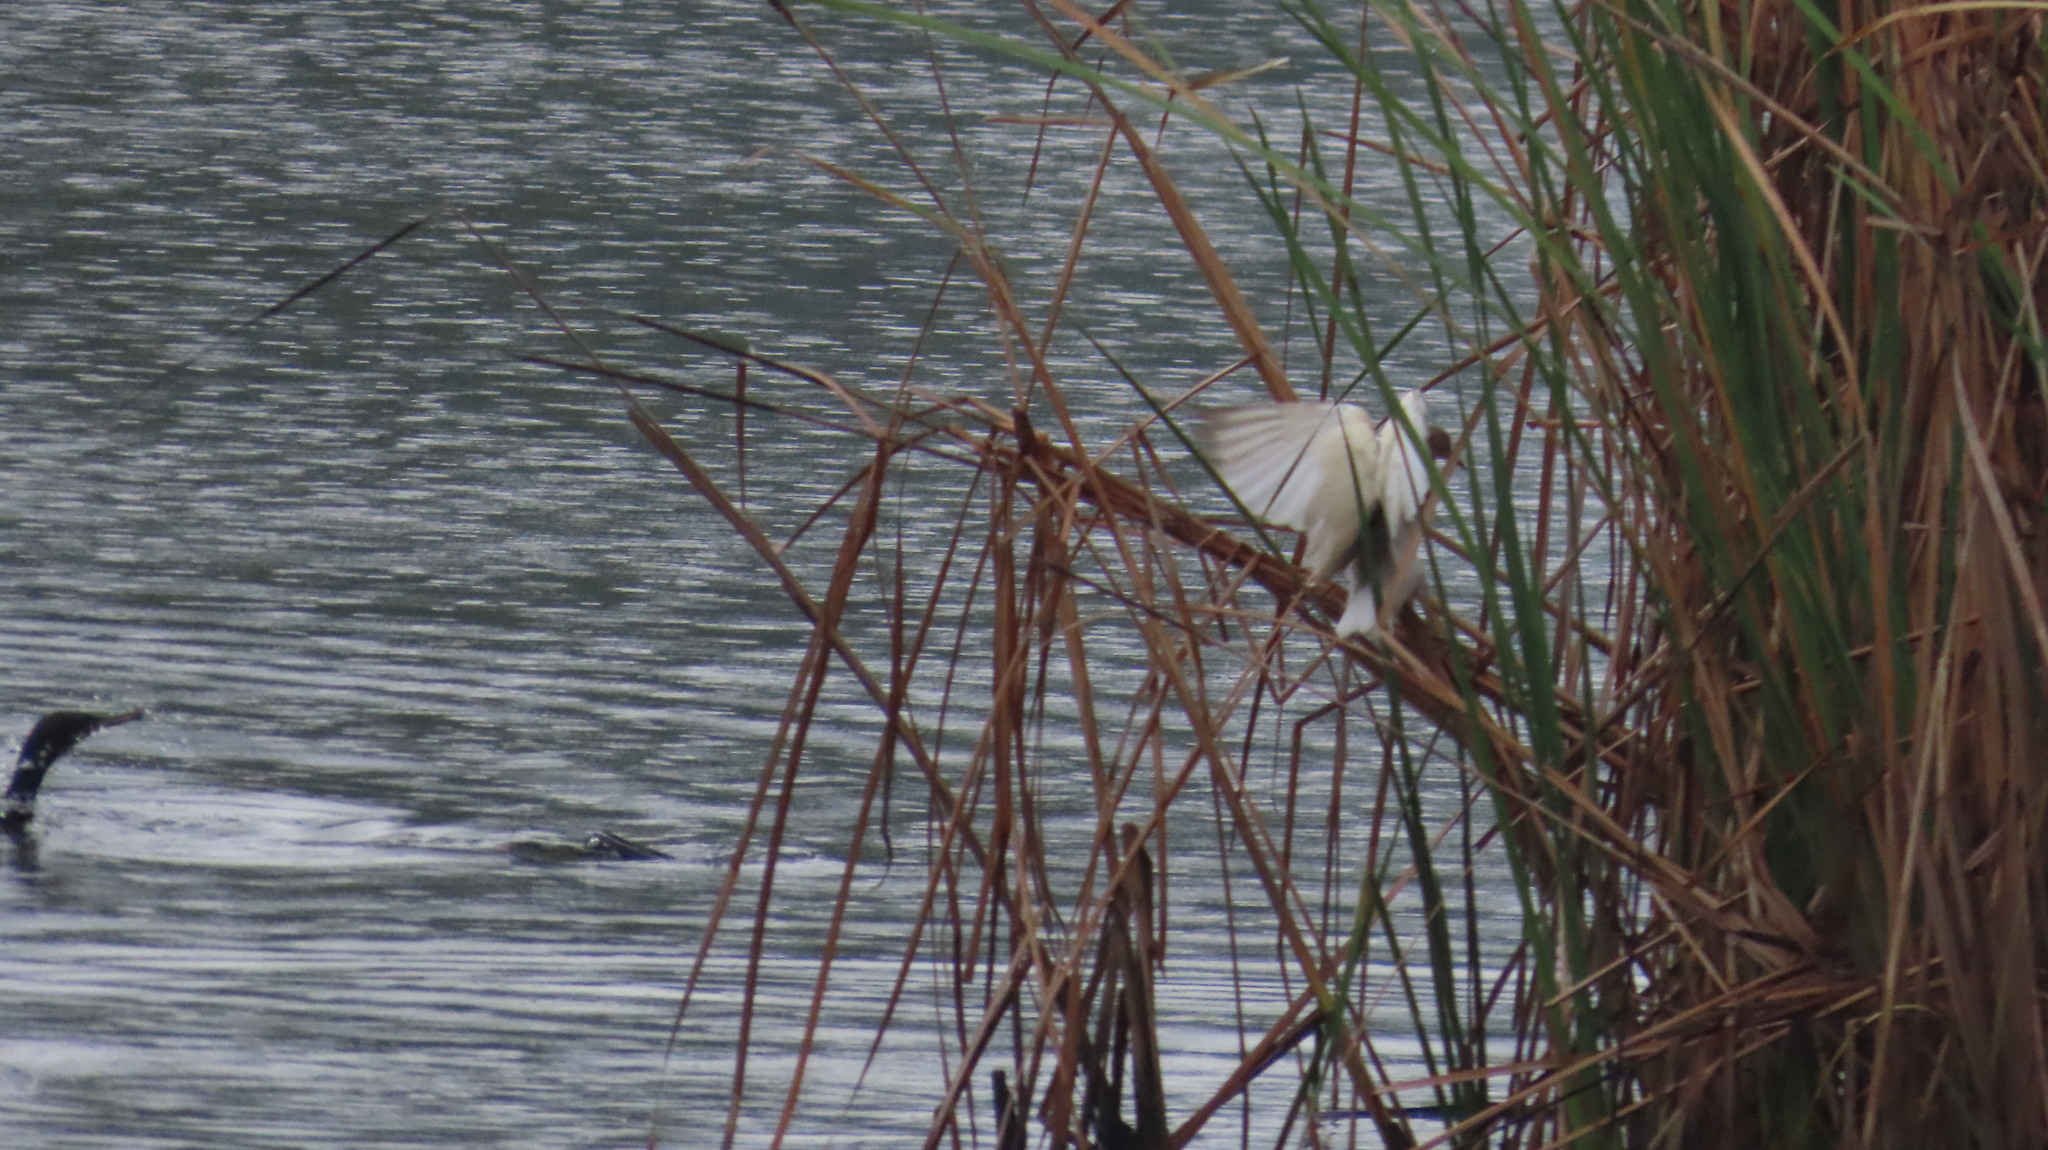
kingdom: Animalia
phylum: Chordata
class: Aves
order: Pelecaniformes
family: Ardeidae
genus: Ardeola
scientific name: Ardeola grayii
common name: Indian pond heron
